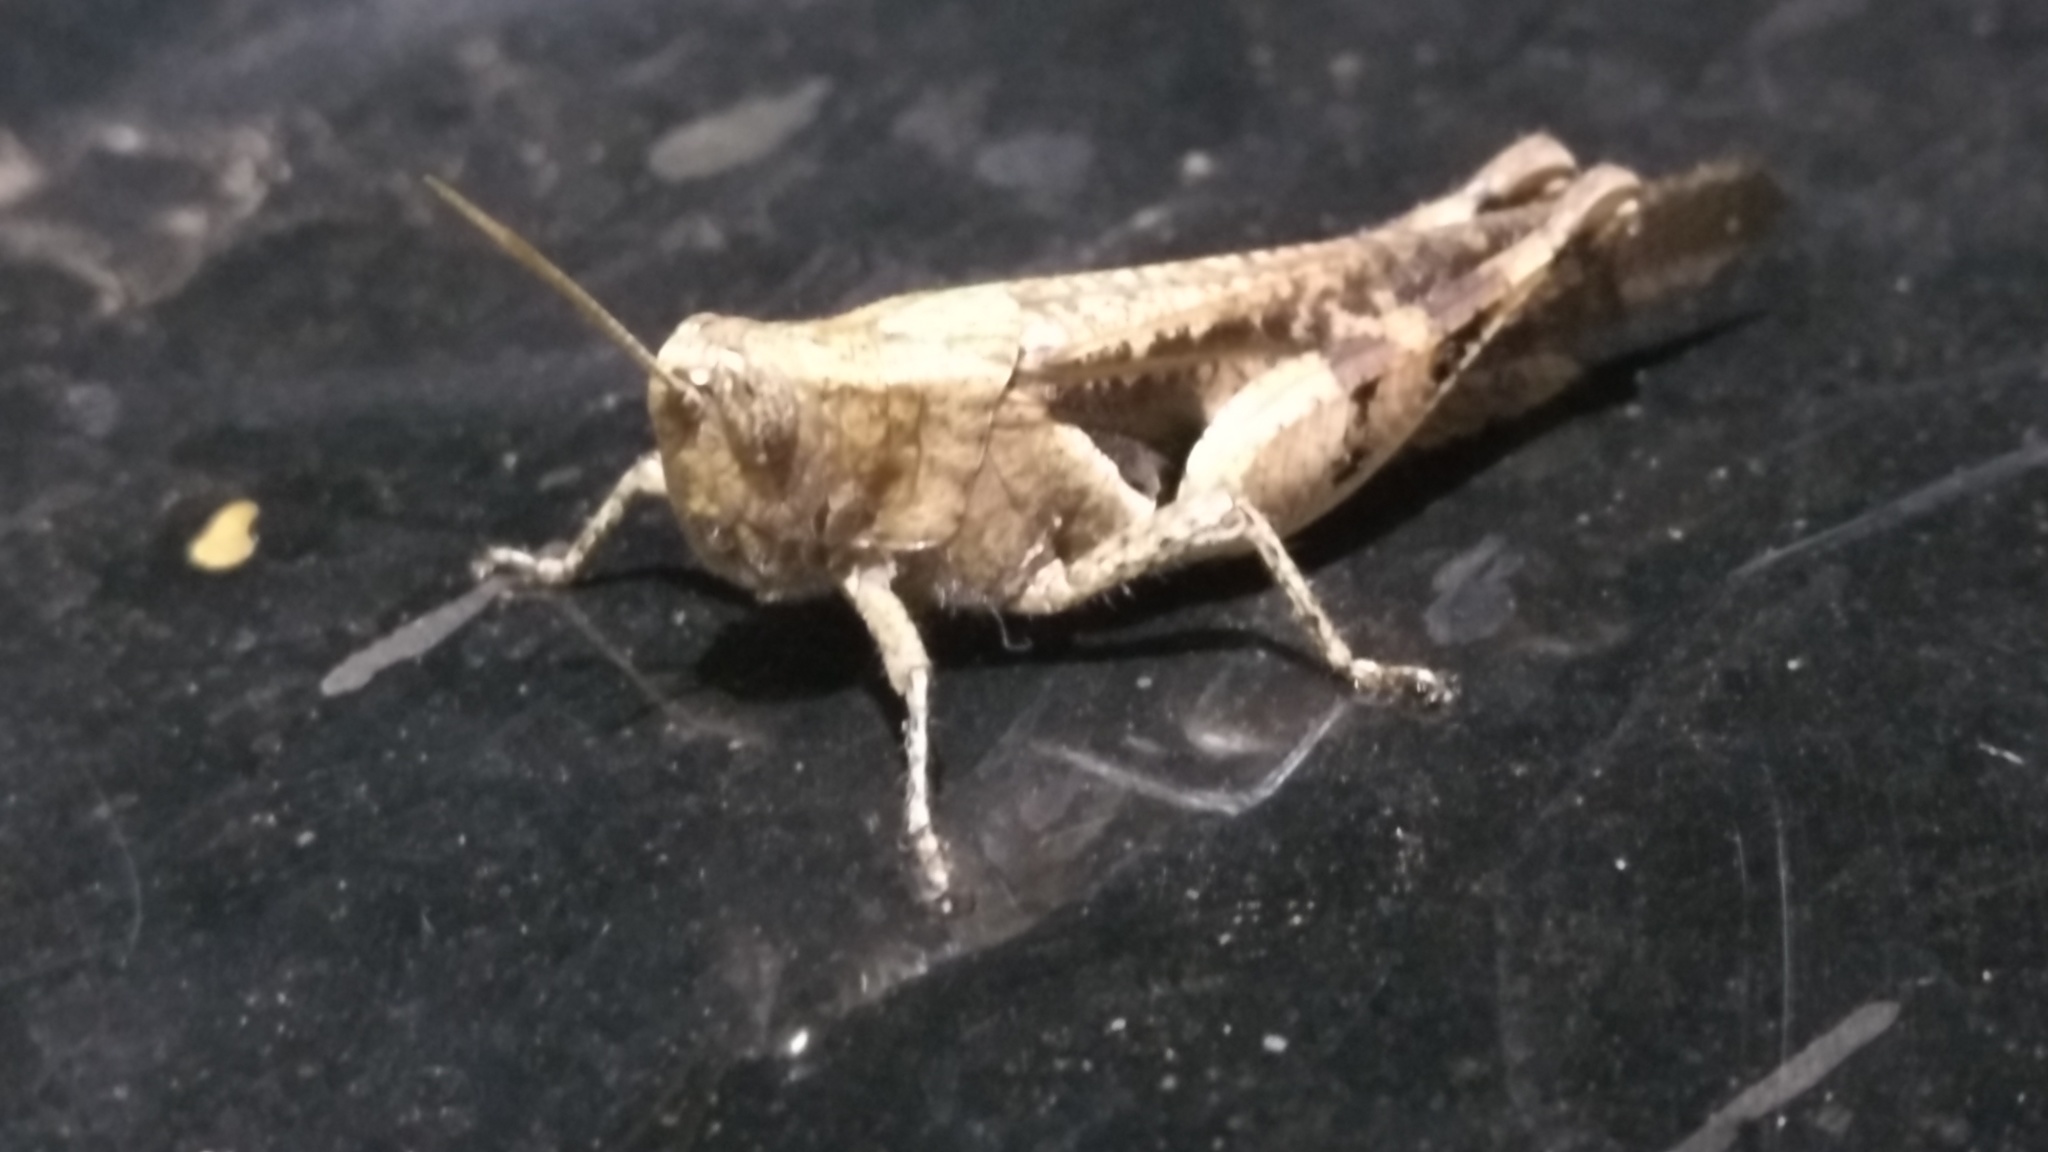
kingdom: Animalia
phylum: Arthropoda
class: Insecta
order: Orthoptera
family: Acrididae
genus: Xenocatantops
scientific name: Xenocatantops henryi
